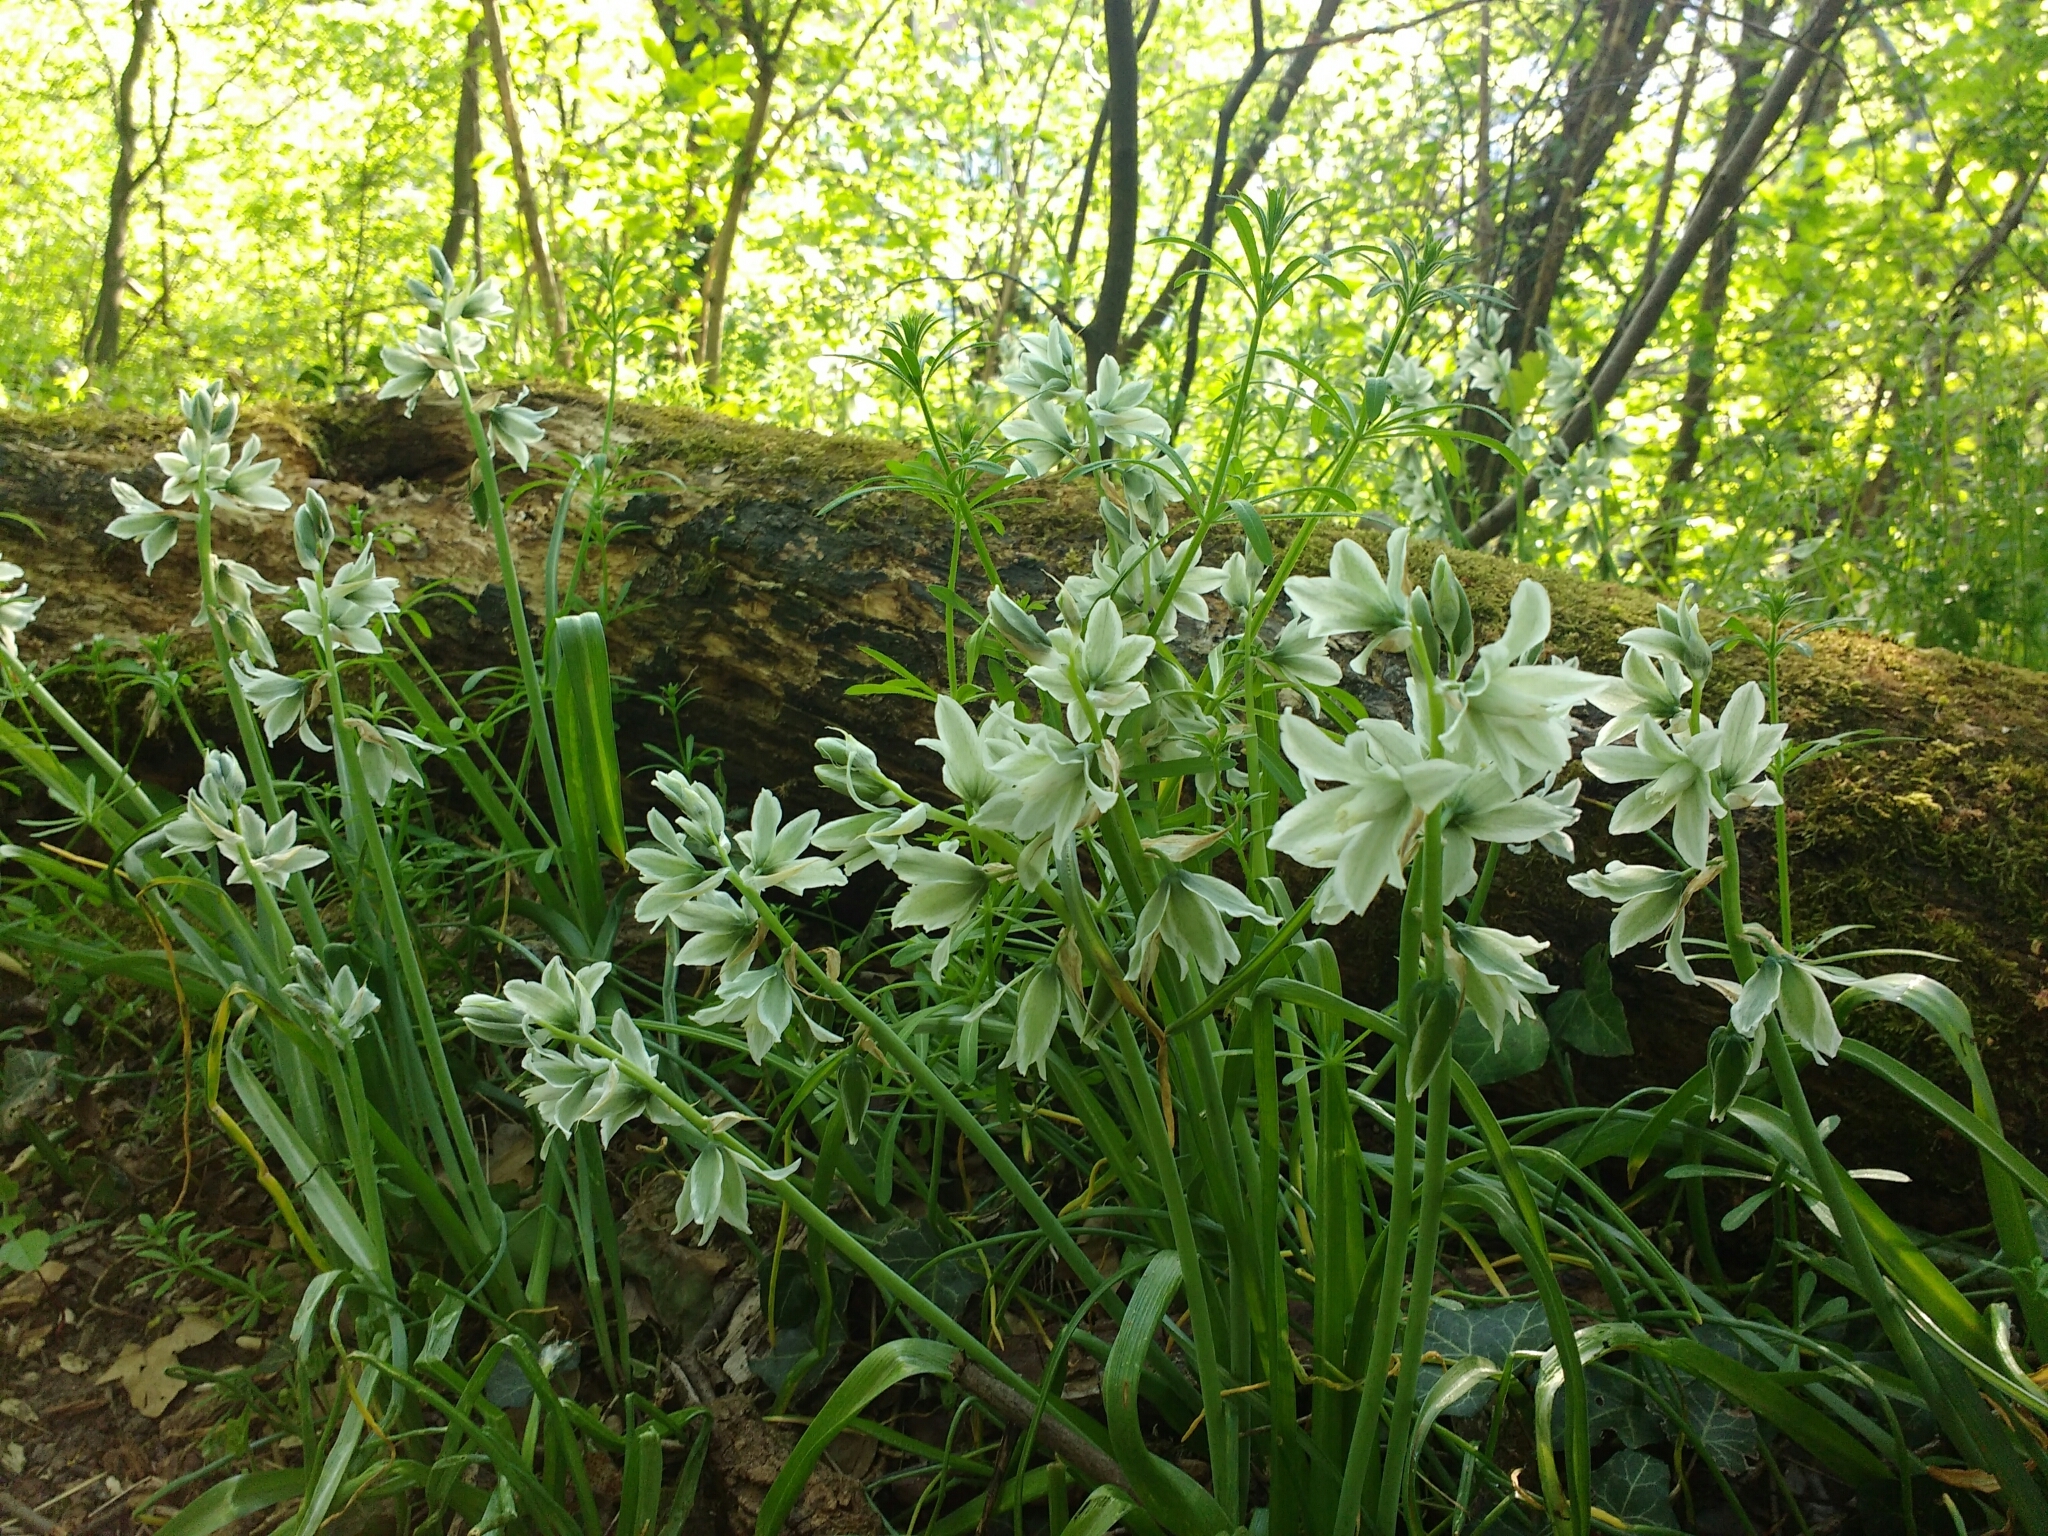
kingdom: Plantae
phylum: Tracheophyta
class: Liliopsida
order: Asparagales
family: Asparagaceae
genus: Ornithogalum
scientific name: Ornithogalum nutans
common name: Drooping star-of-bethlehem
